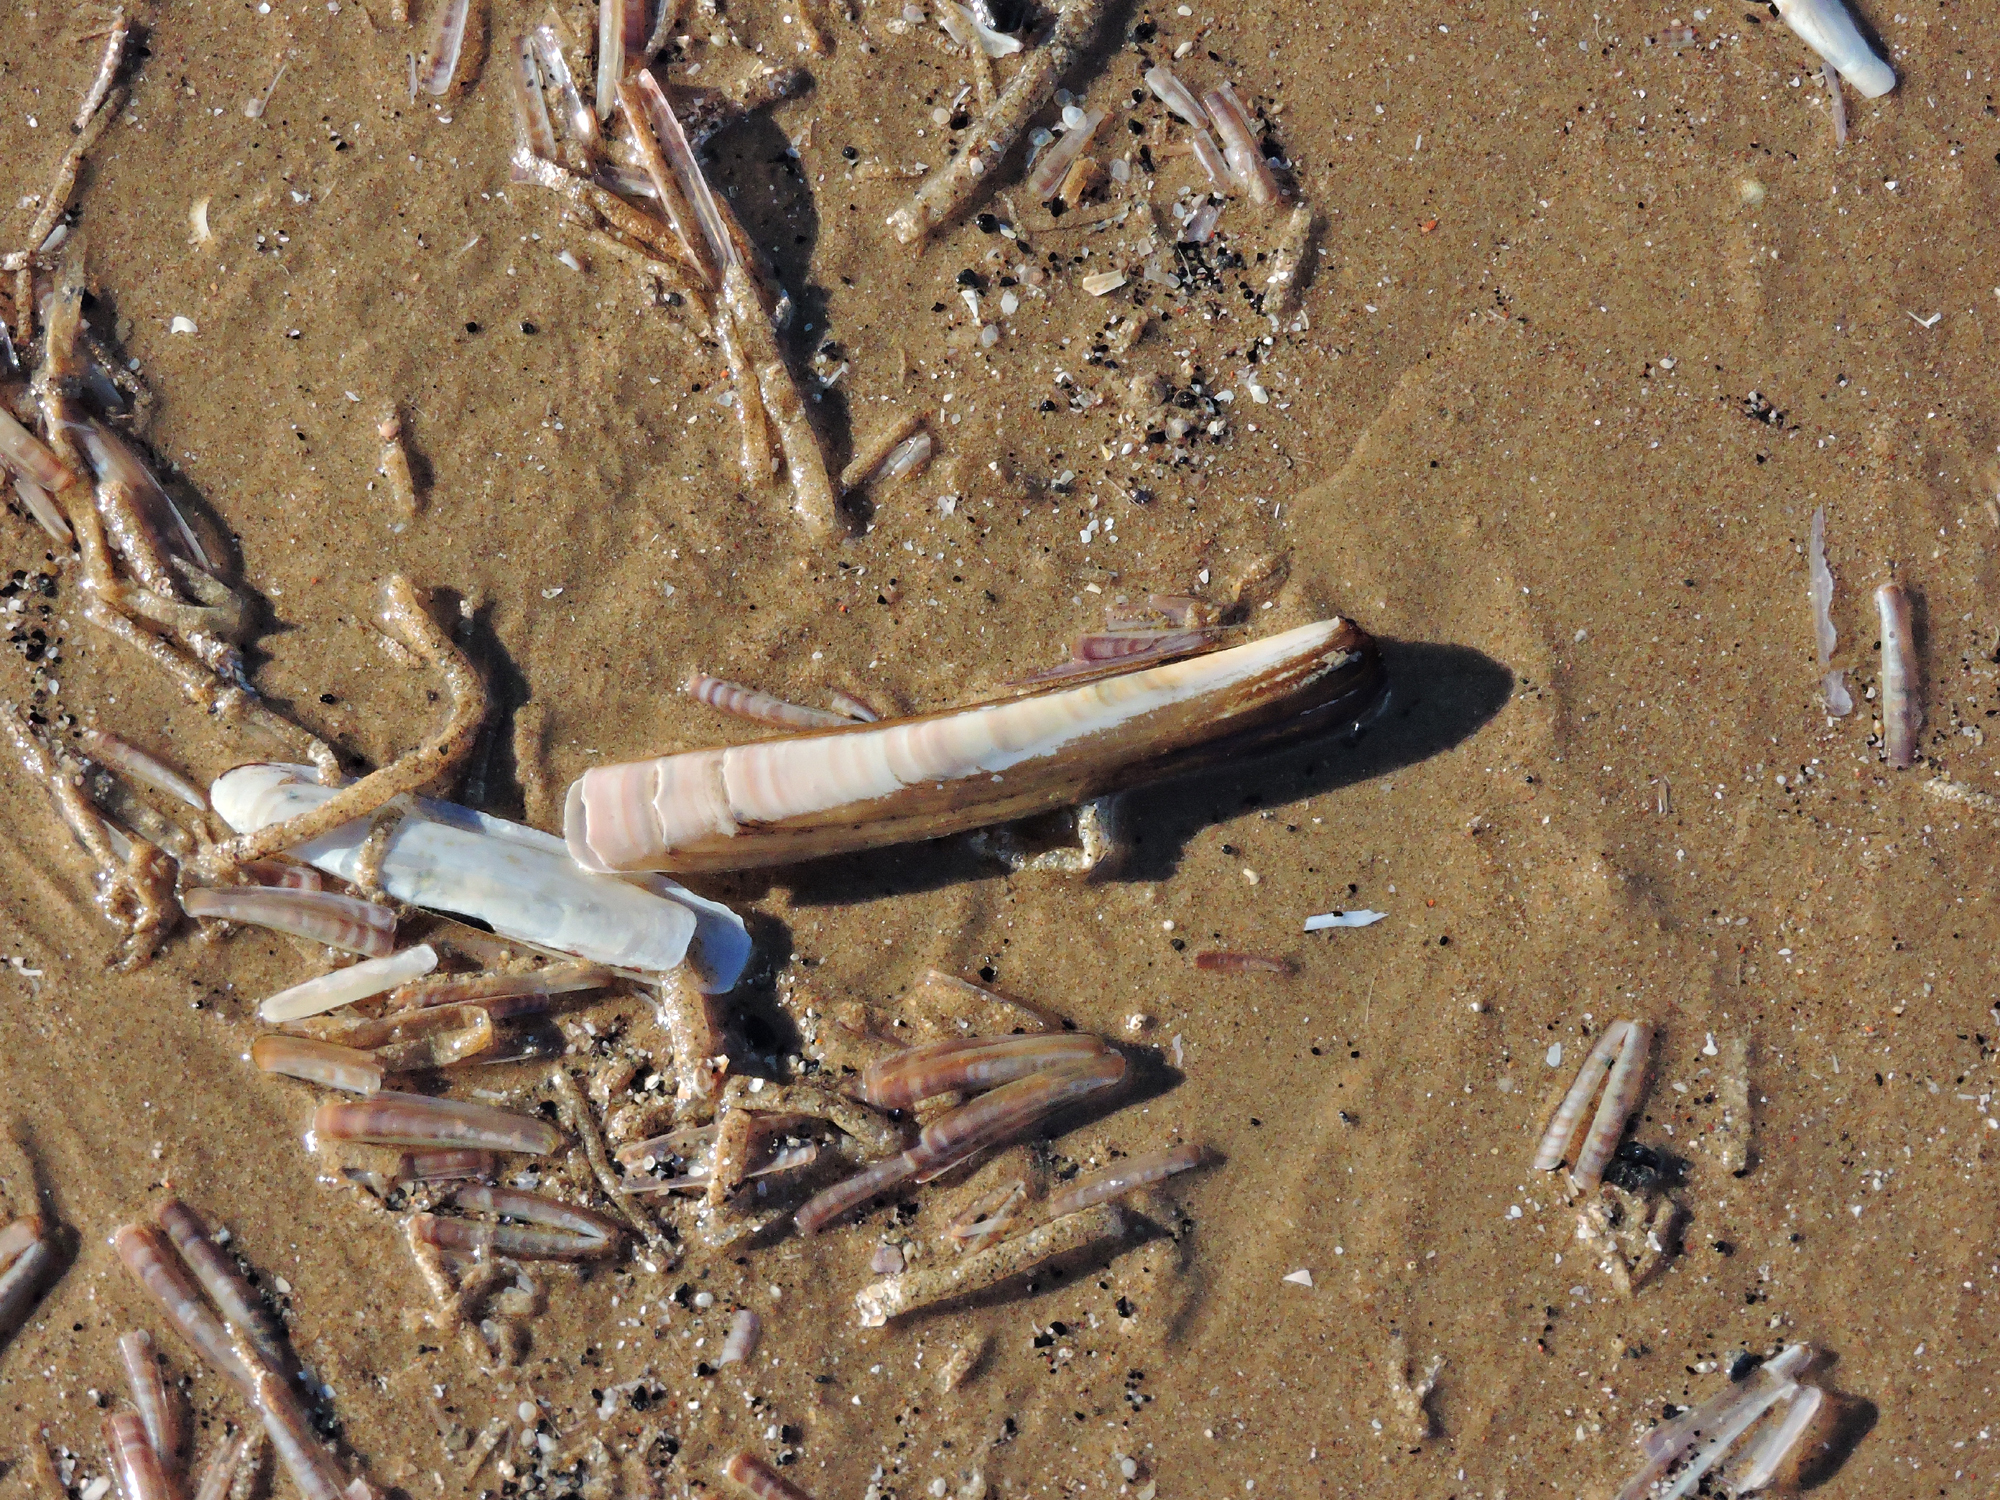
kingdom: Animalia
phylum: Mollusca
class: Bivalvia
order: Adapedonta
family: Pharidae
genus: Ensis
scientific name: Ensis leei
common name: American jack knife clam
